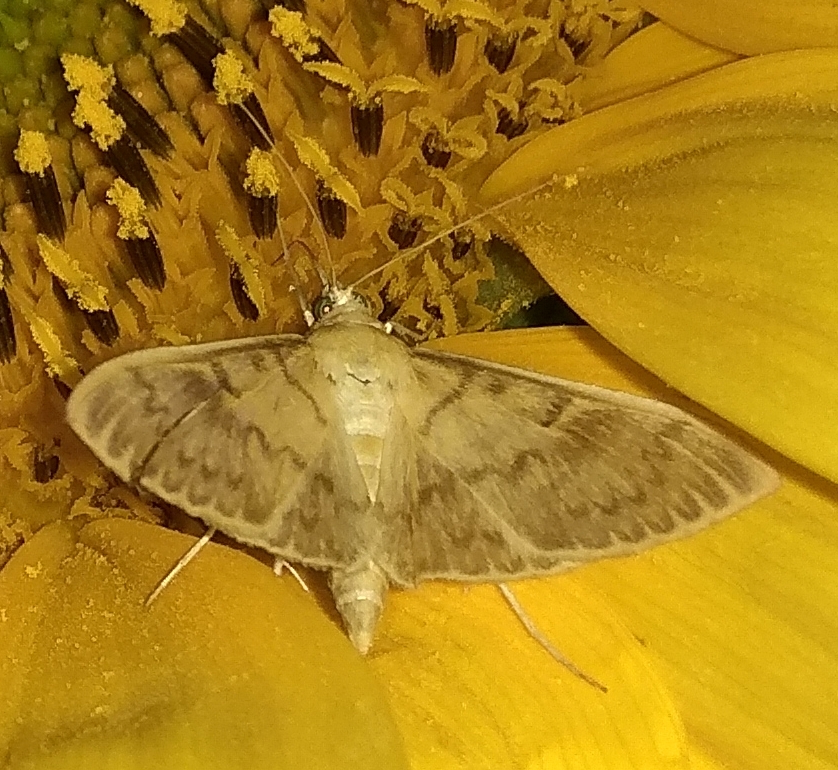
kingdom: Animalia
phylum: Arthropoda
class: Insecta
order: Lepidoptera
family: Crambidae
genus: Patania
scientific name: Patania ruralis
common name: Mother of pearl
